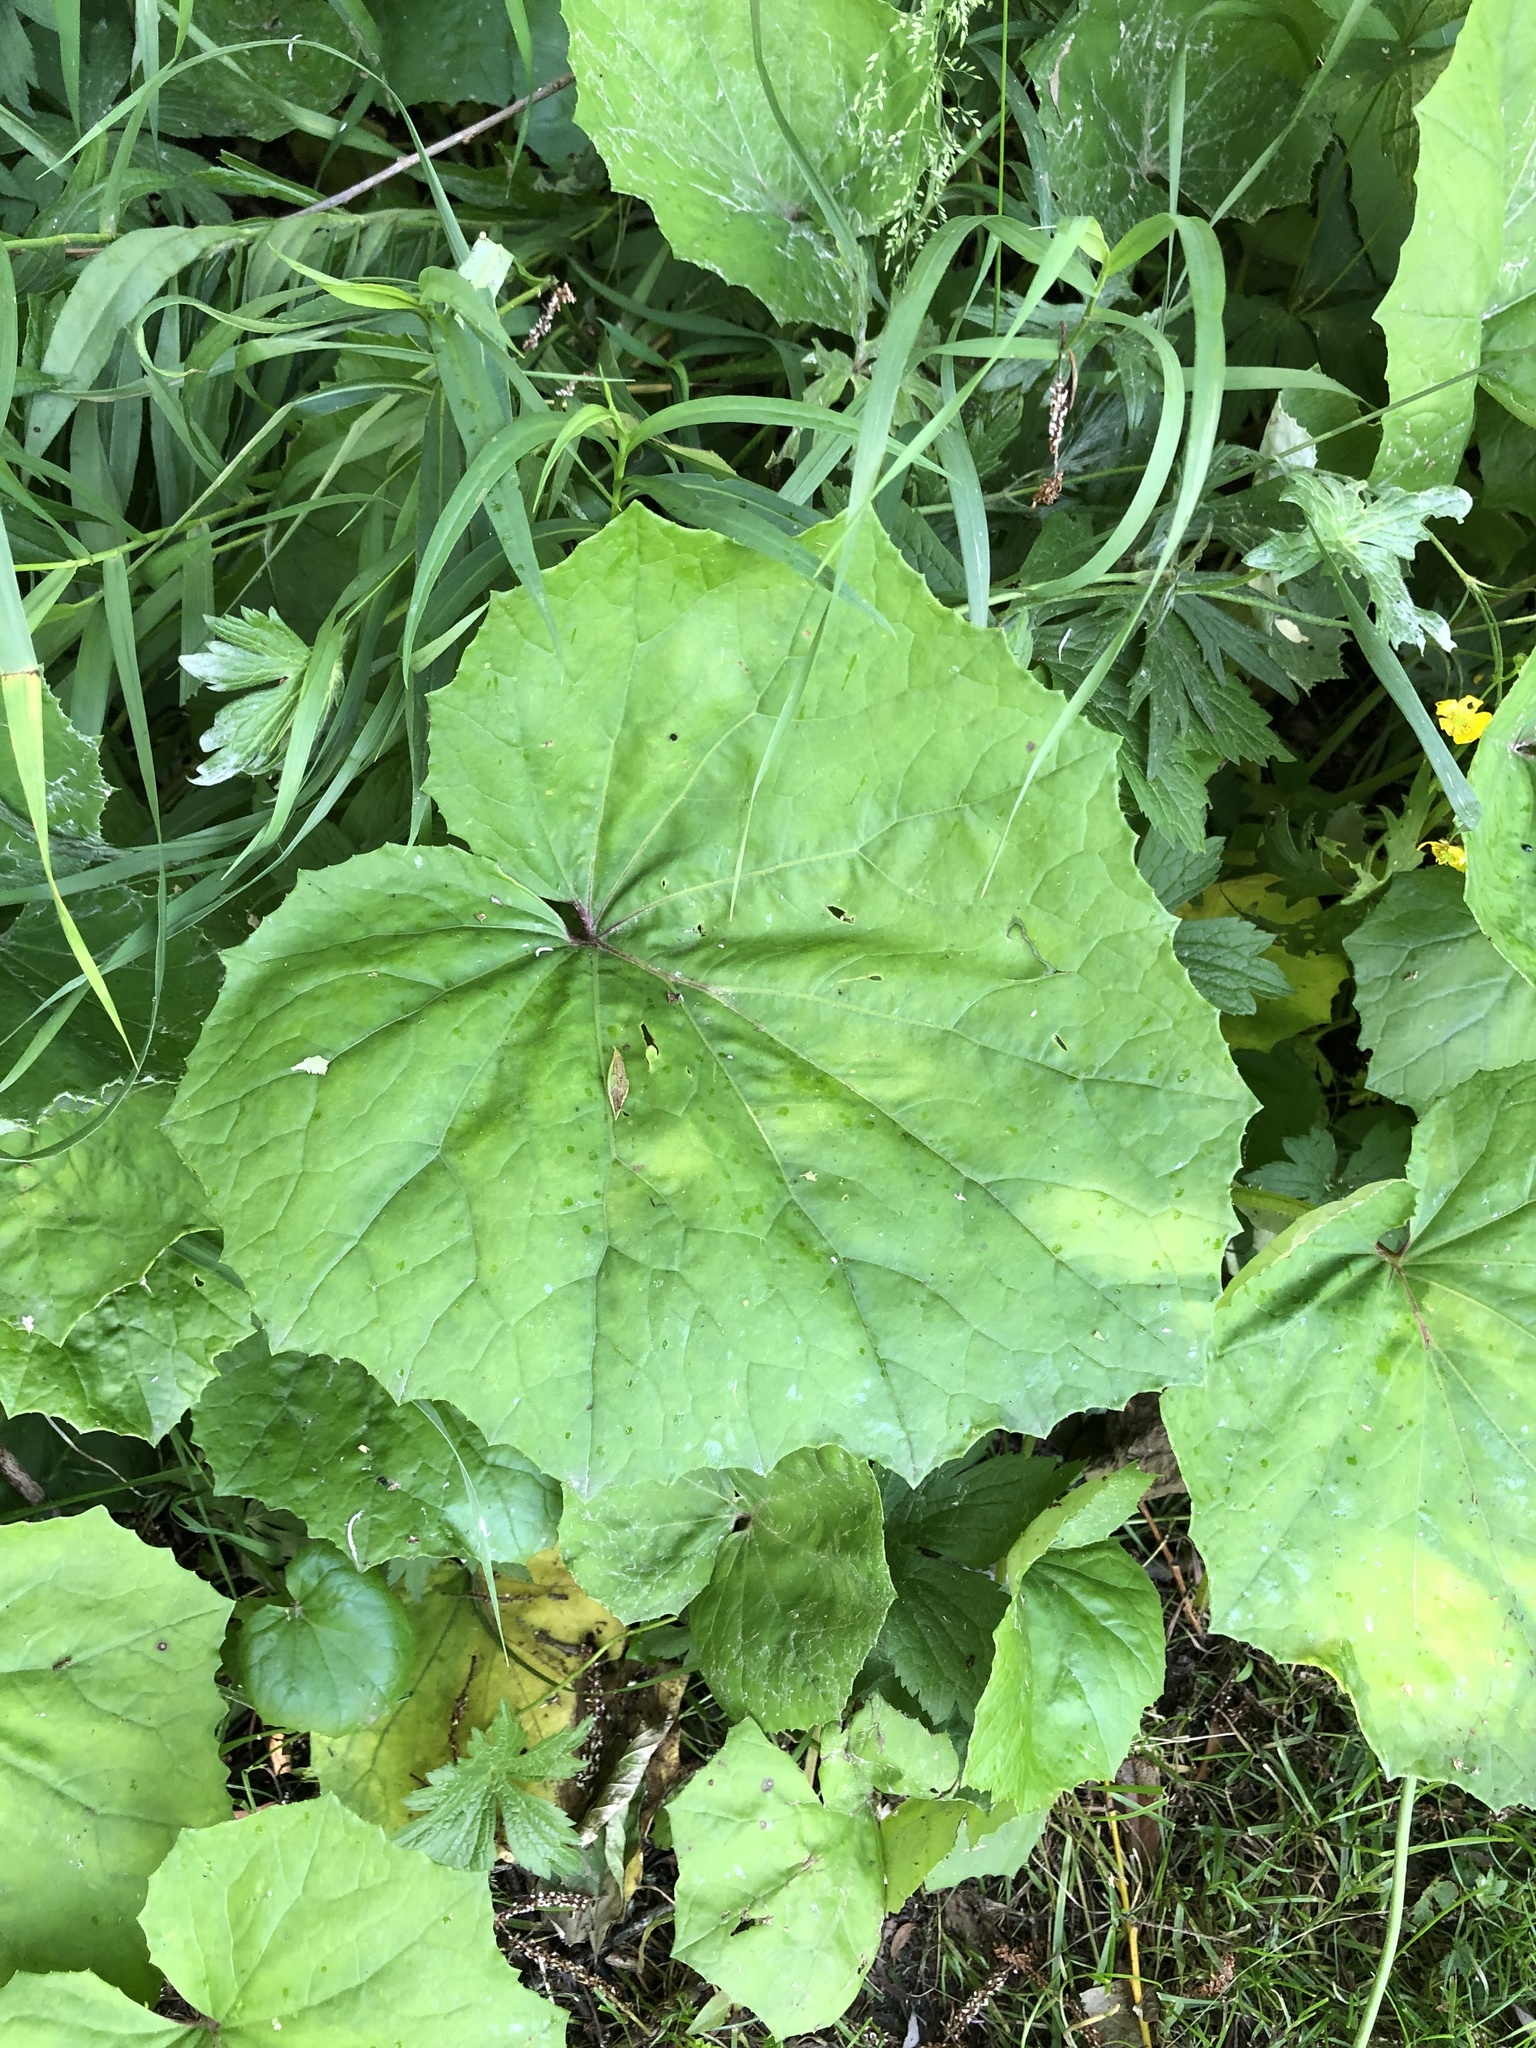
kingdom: Plantae
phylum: Tracheophyta
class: Magnoliopsida
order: Asterales
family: Asteraceae
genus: Tussilago
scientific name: Tussilago farfara
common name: Coltsfoot
